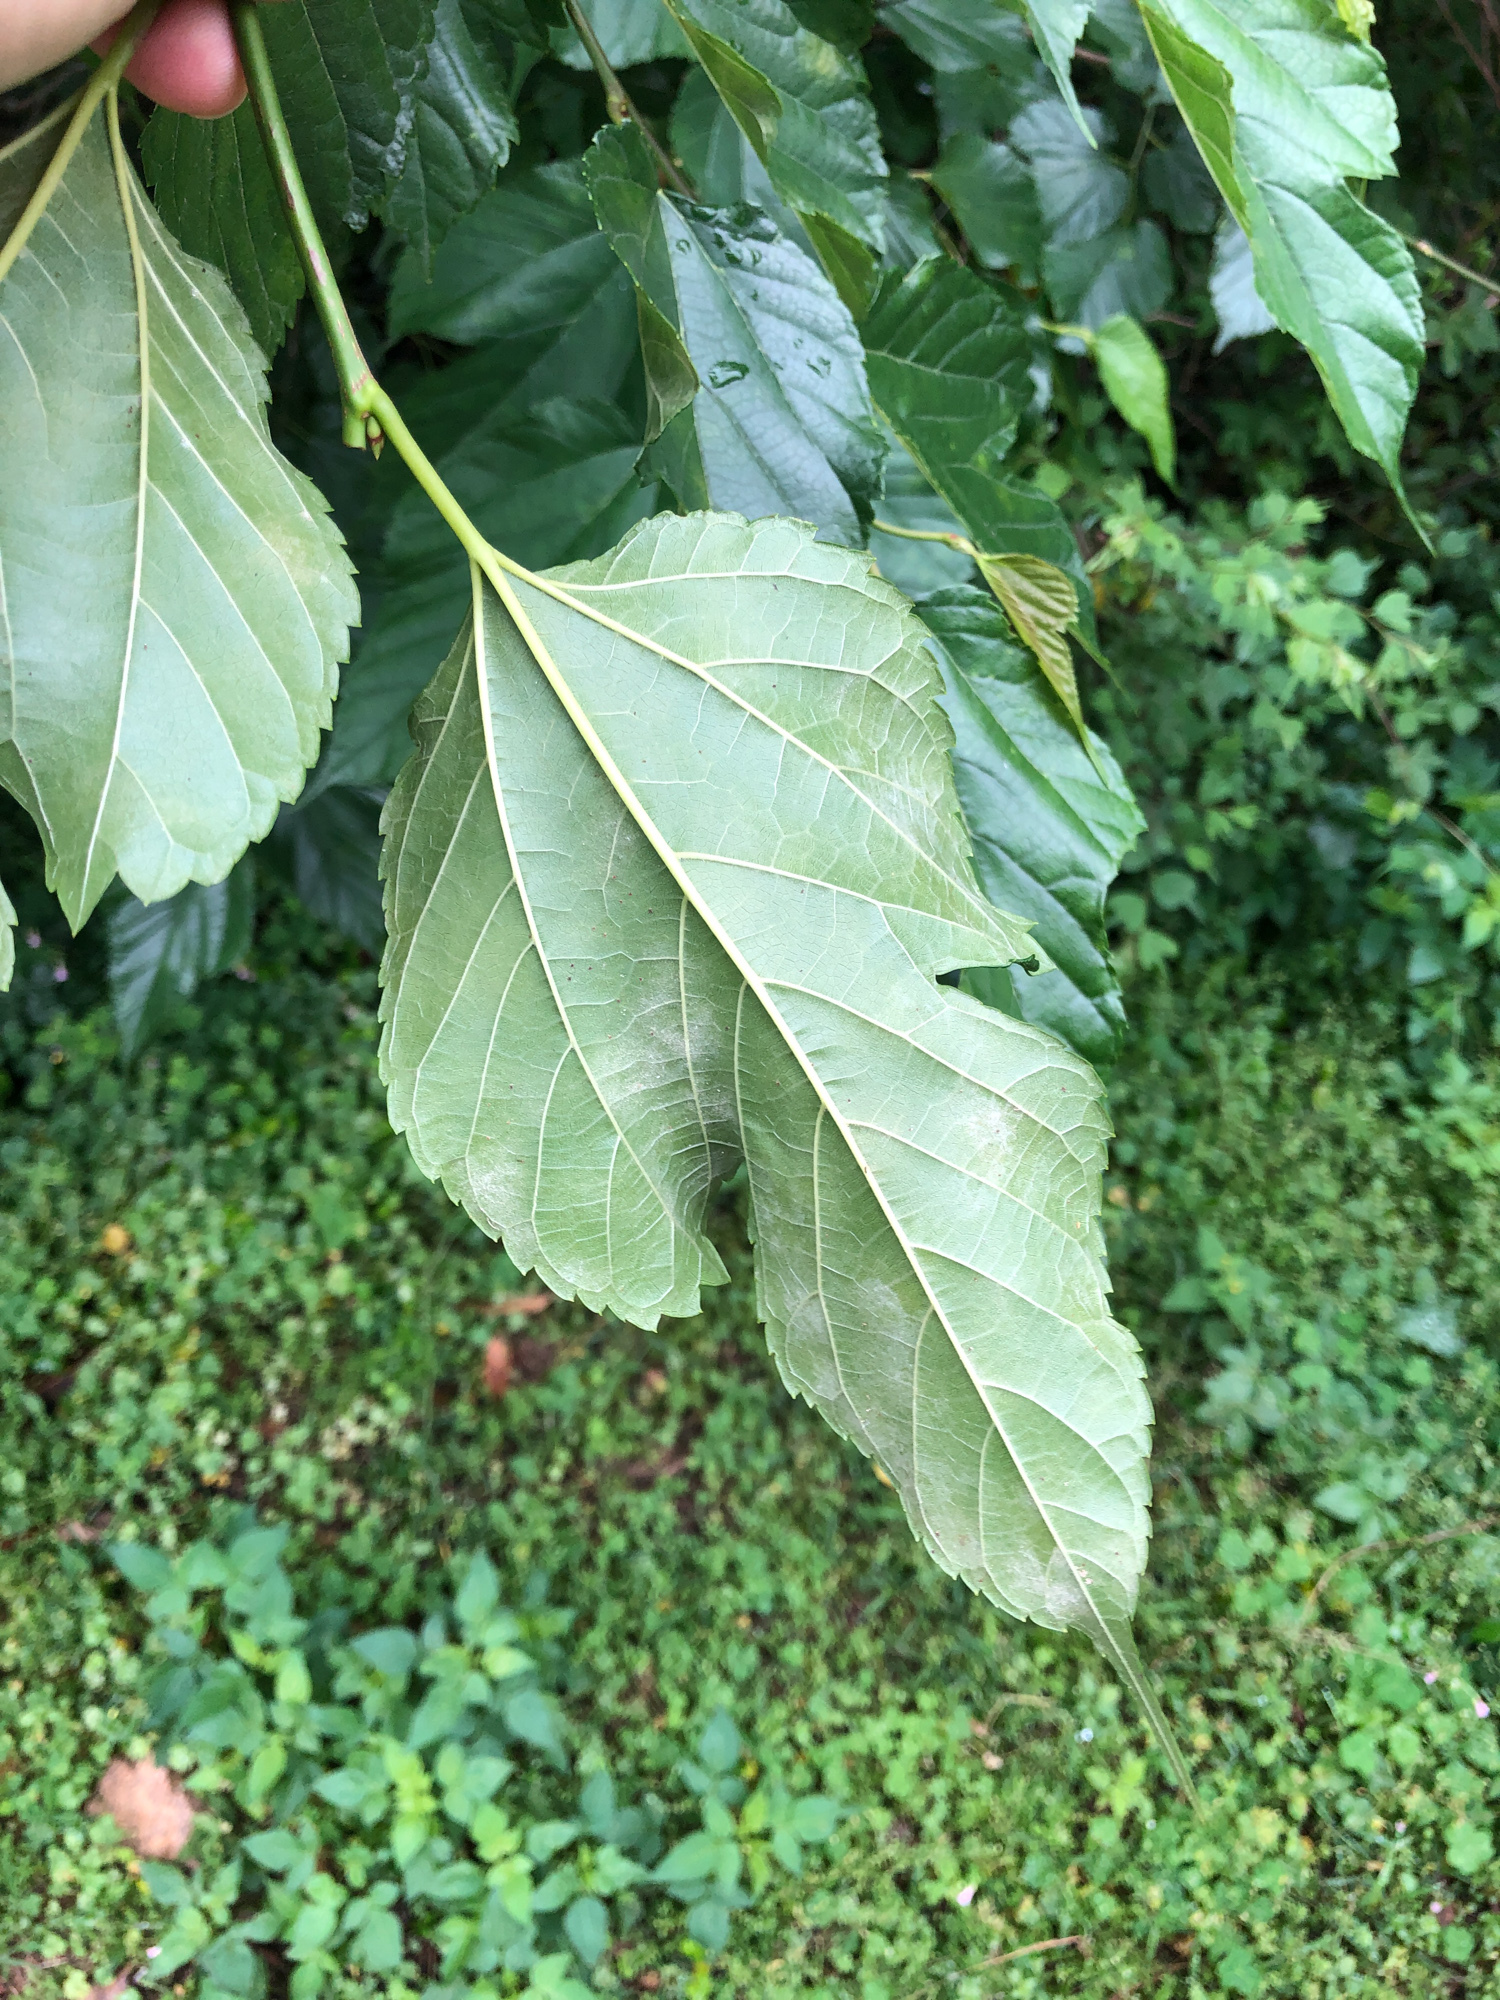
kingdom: Plantae
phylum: Tracheophyta
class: Magnoliopsida
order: Rosales
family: Moraceae
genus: Morus
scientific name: Morus indica
